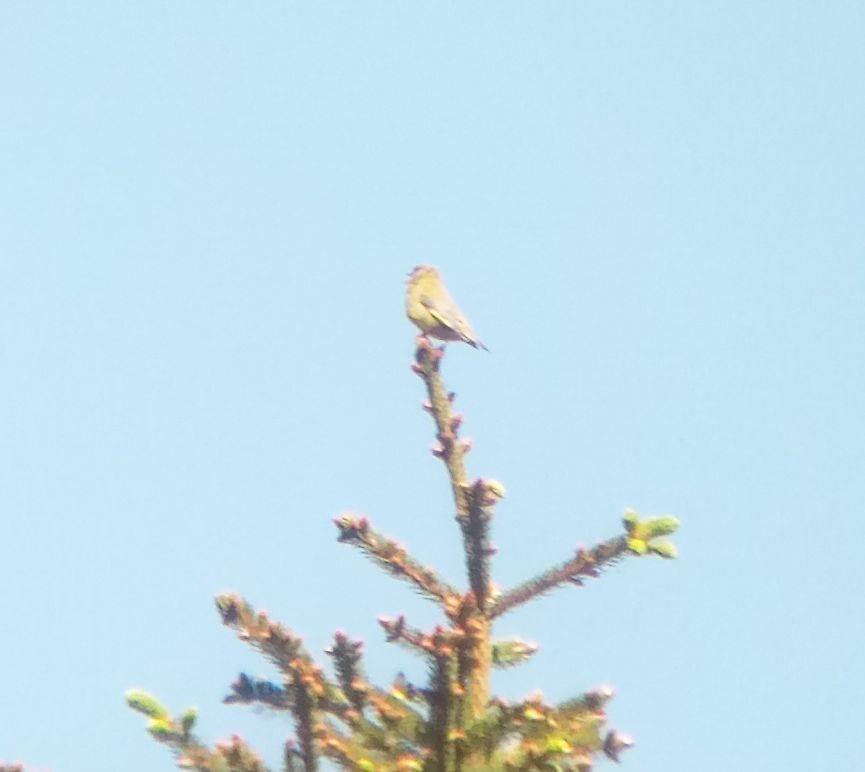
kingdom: Plantae
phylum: Tracheophyta
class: Liliopsida
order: Poales
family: Poaceae
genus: Chloris
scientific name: Chloris chloris
